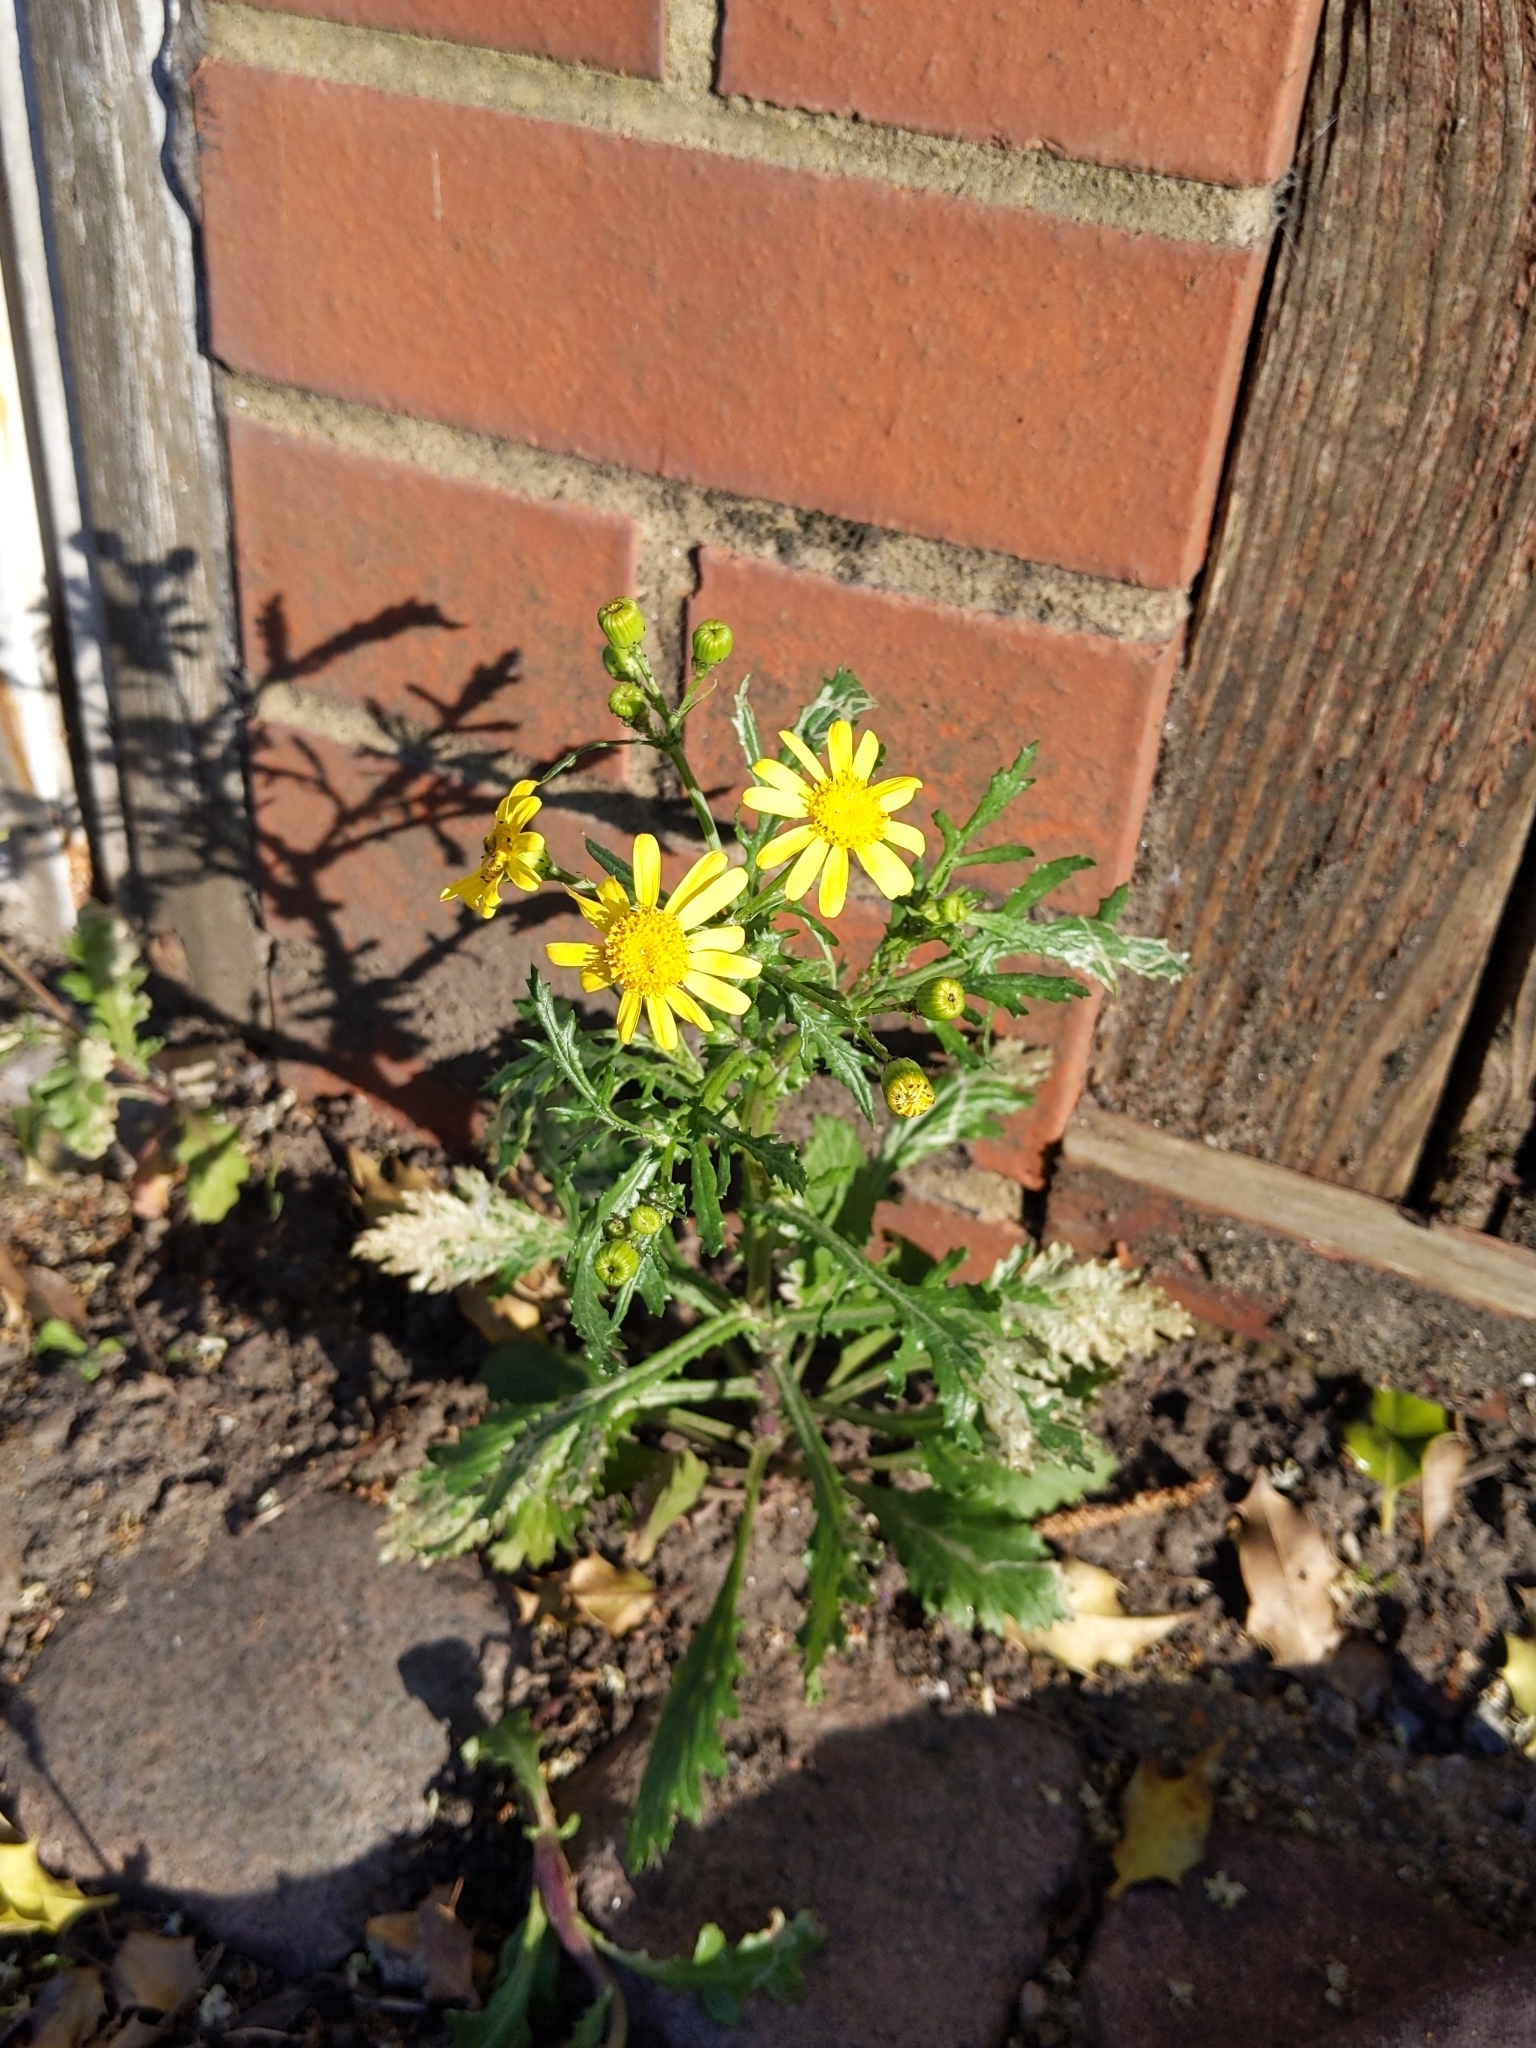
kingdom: Plantae
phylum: Tracheophyta
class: Magnoliopsida
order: Asterales
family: Asteraceae
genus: Senecio
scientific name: Senecio squalidus
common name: Oxford ragwort
